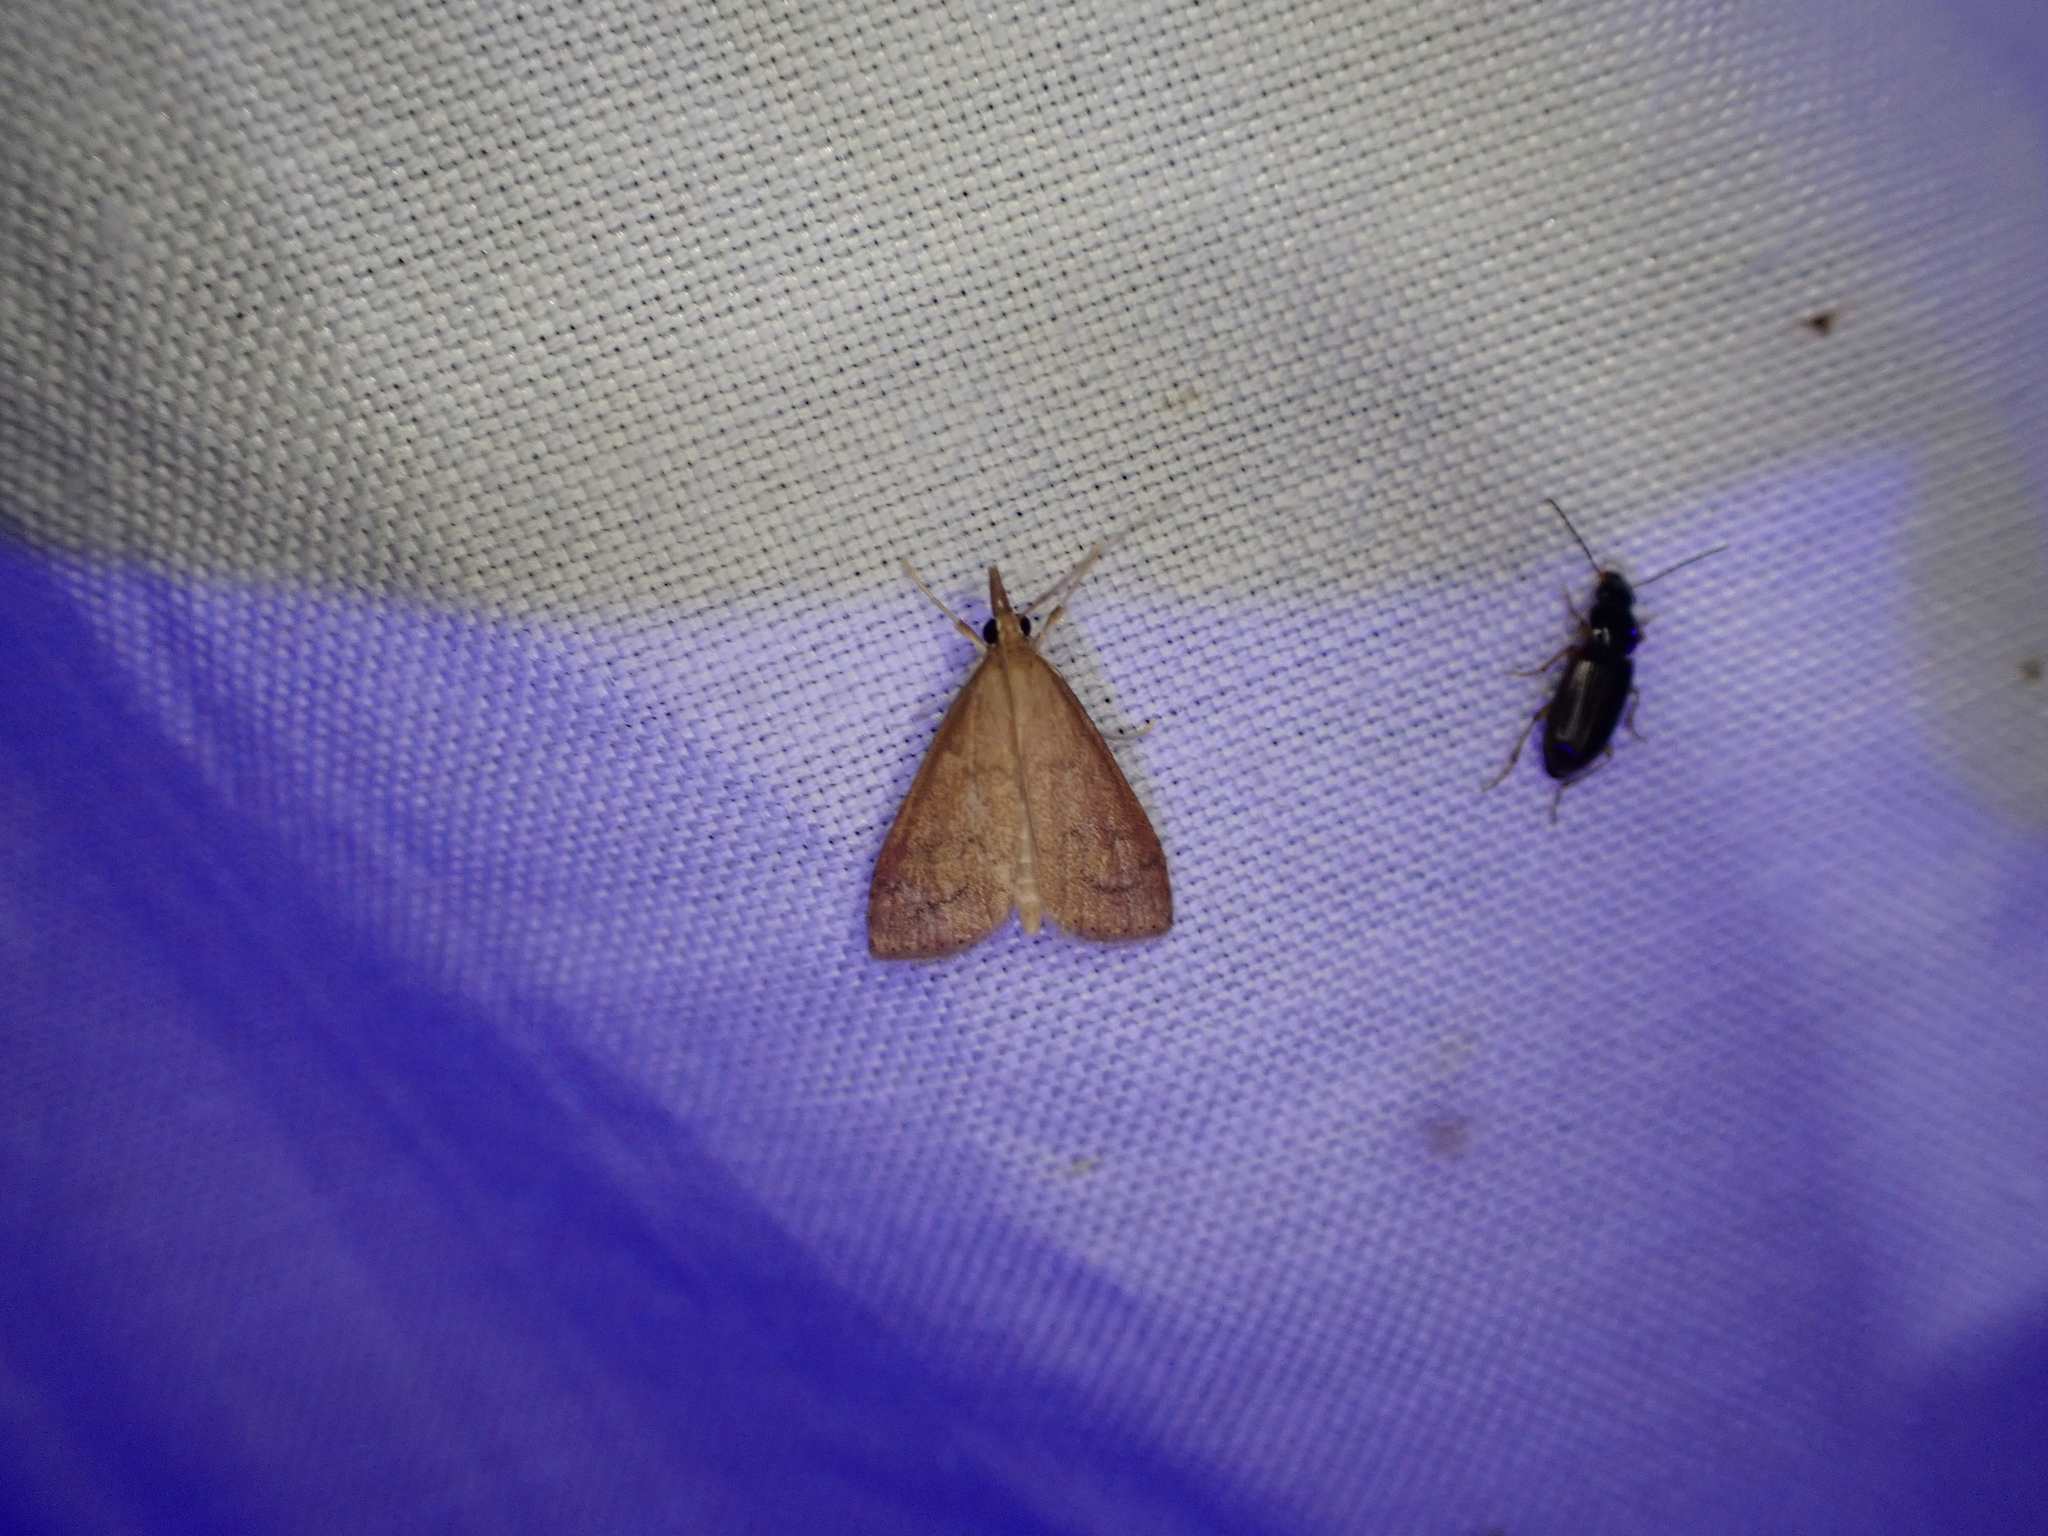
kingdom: Animalia
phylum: Arthropoda
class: Insecta
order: Lepidoptera
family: Crambidae
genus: Udea
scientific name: Udea rubigalis
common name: Celery leaftier moth
